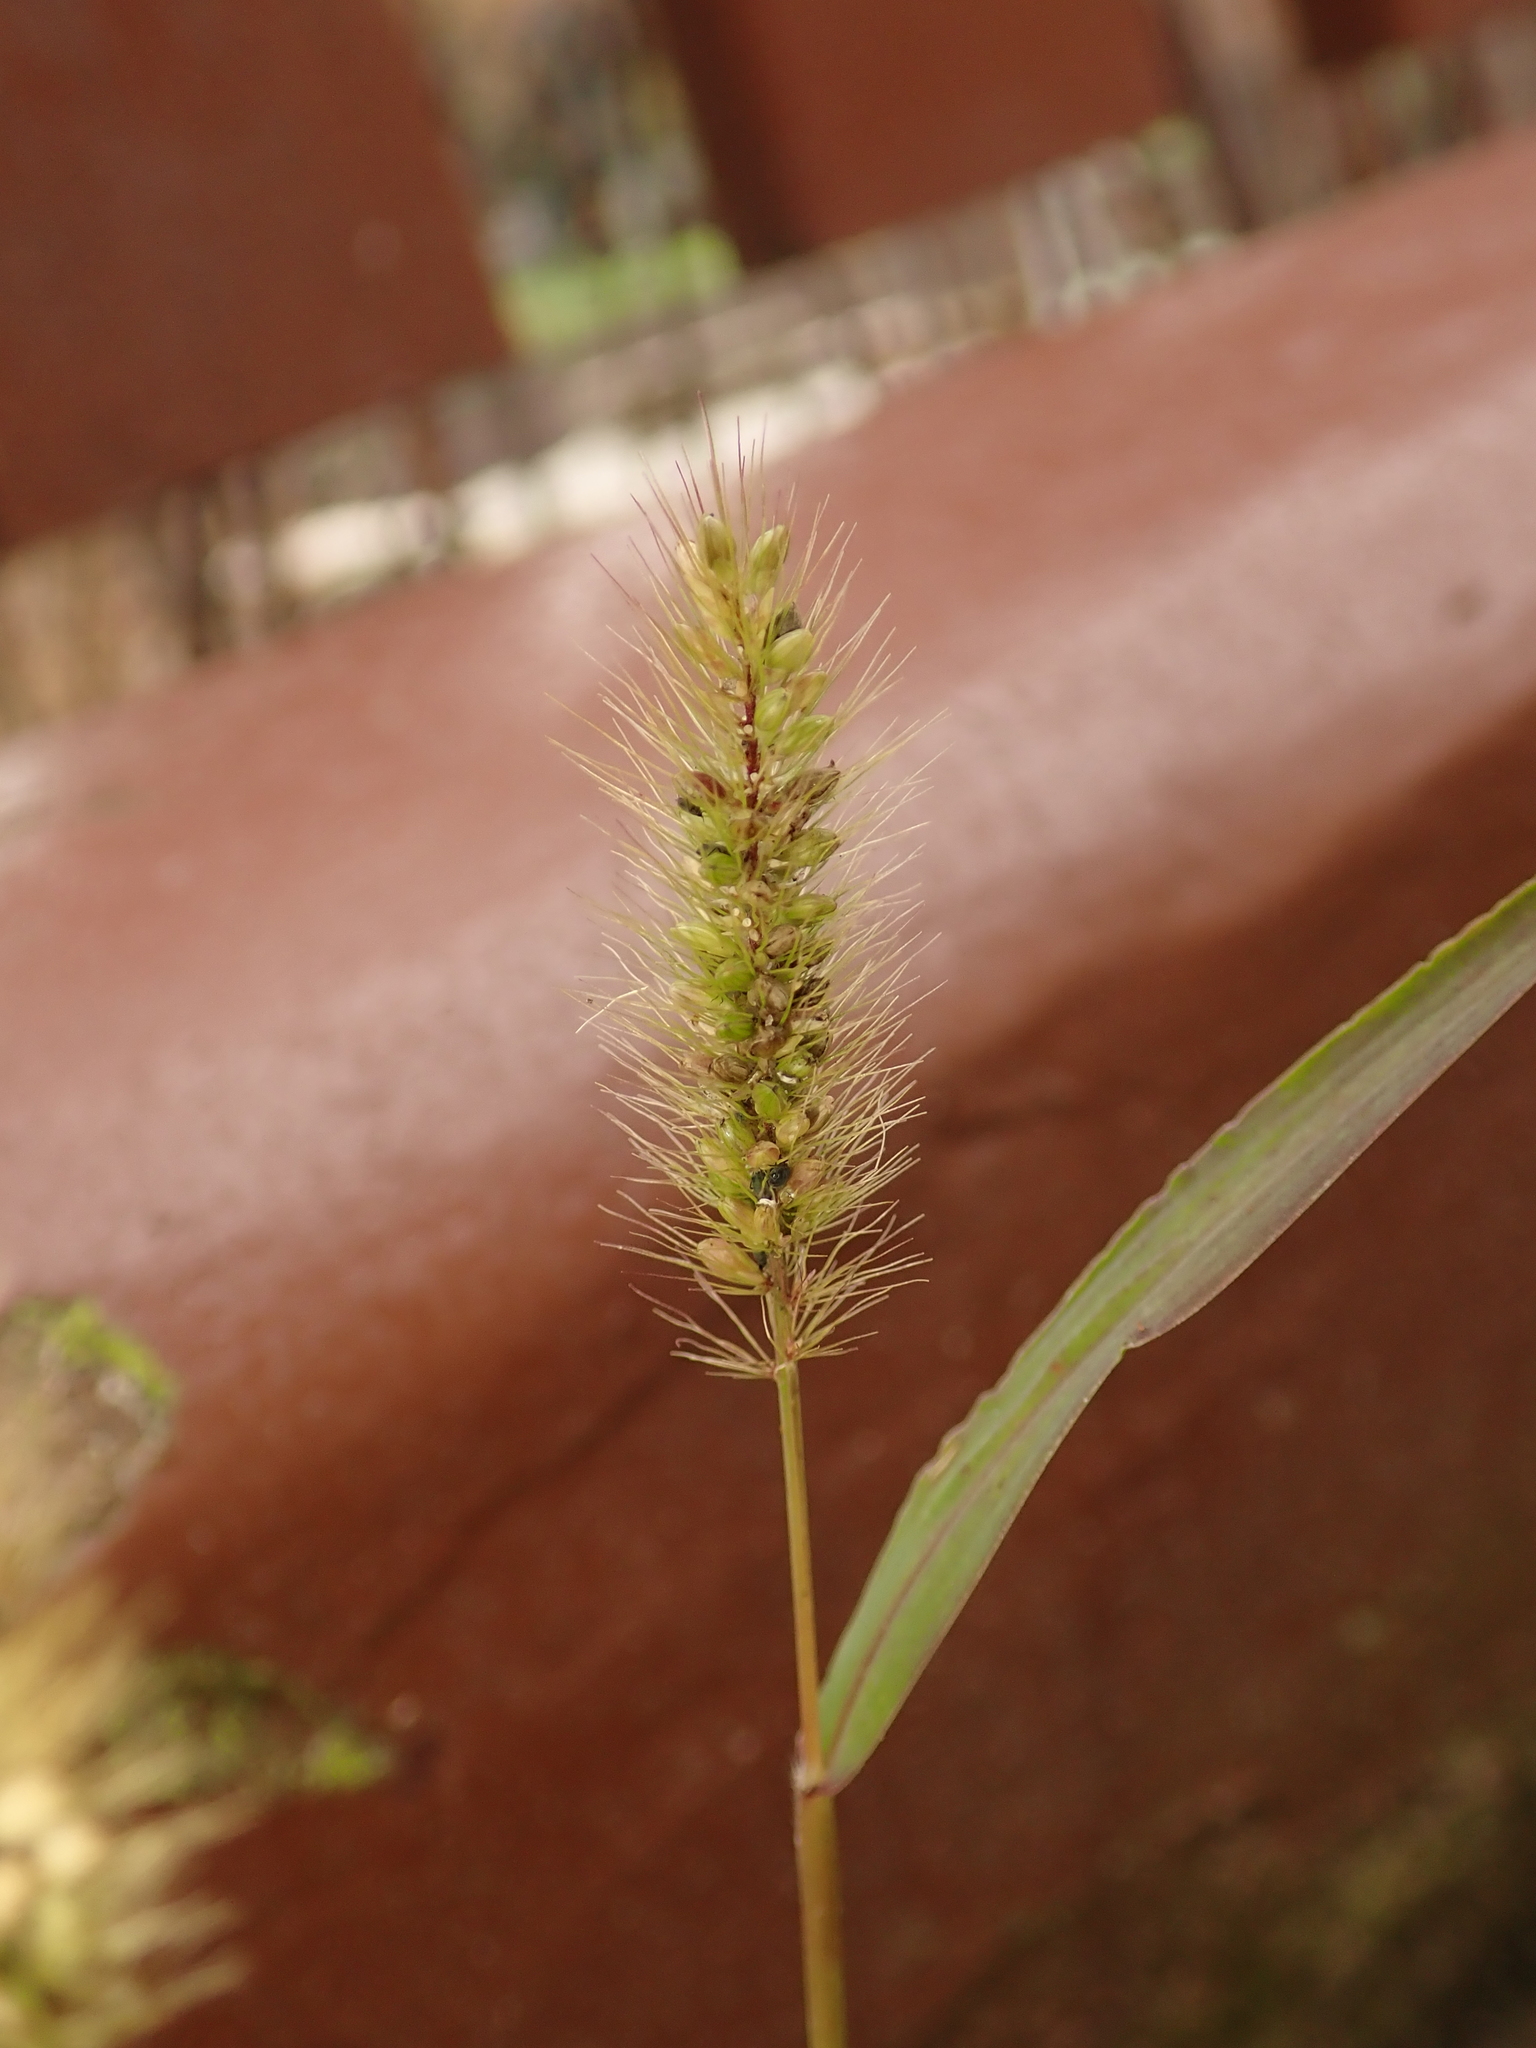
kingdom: Plantae
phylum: Tracheophyta
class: Liliopsida
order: Poales
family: Poaceae
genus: Setaria
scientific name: Setaria viridis
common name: Green bristlegrass
